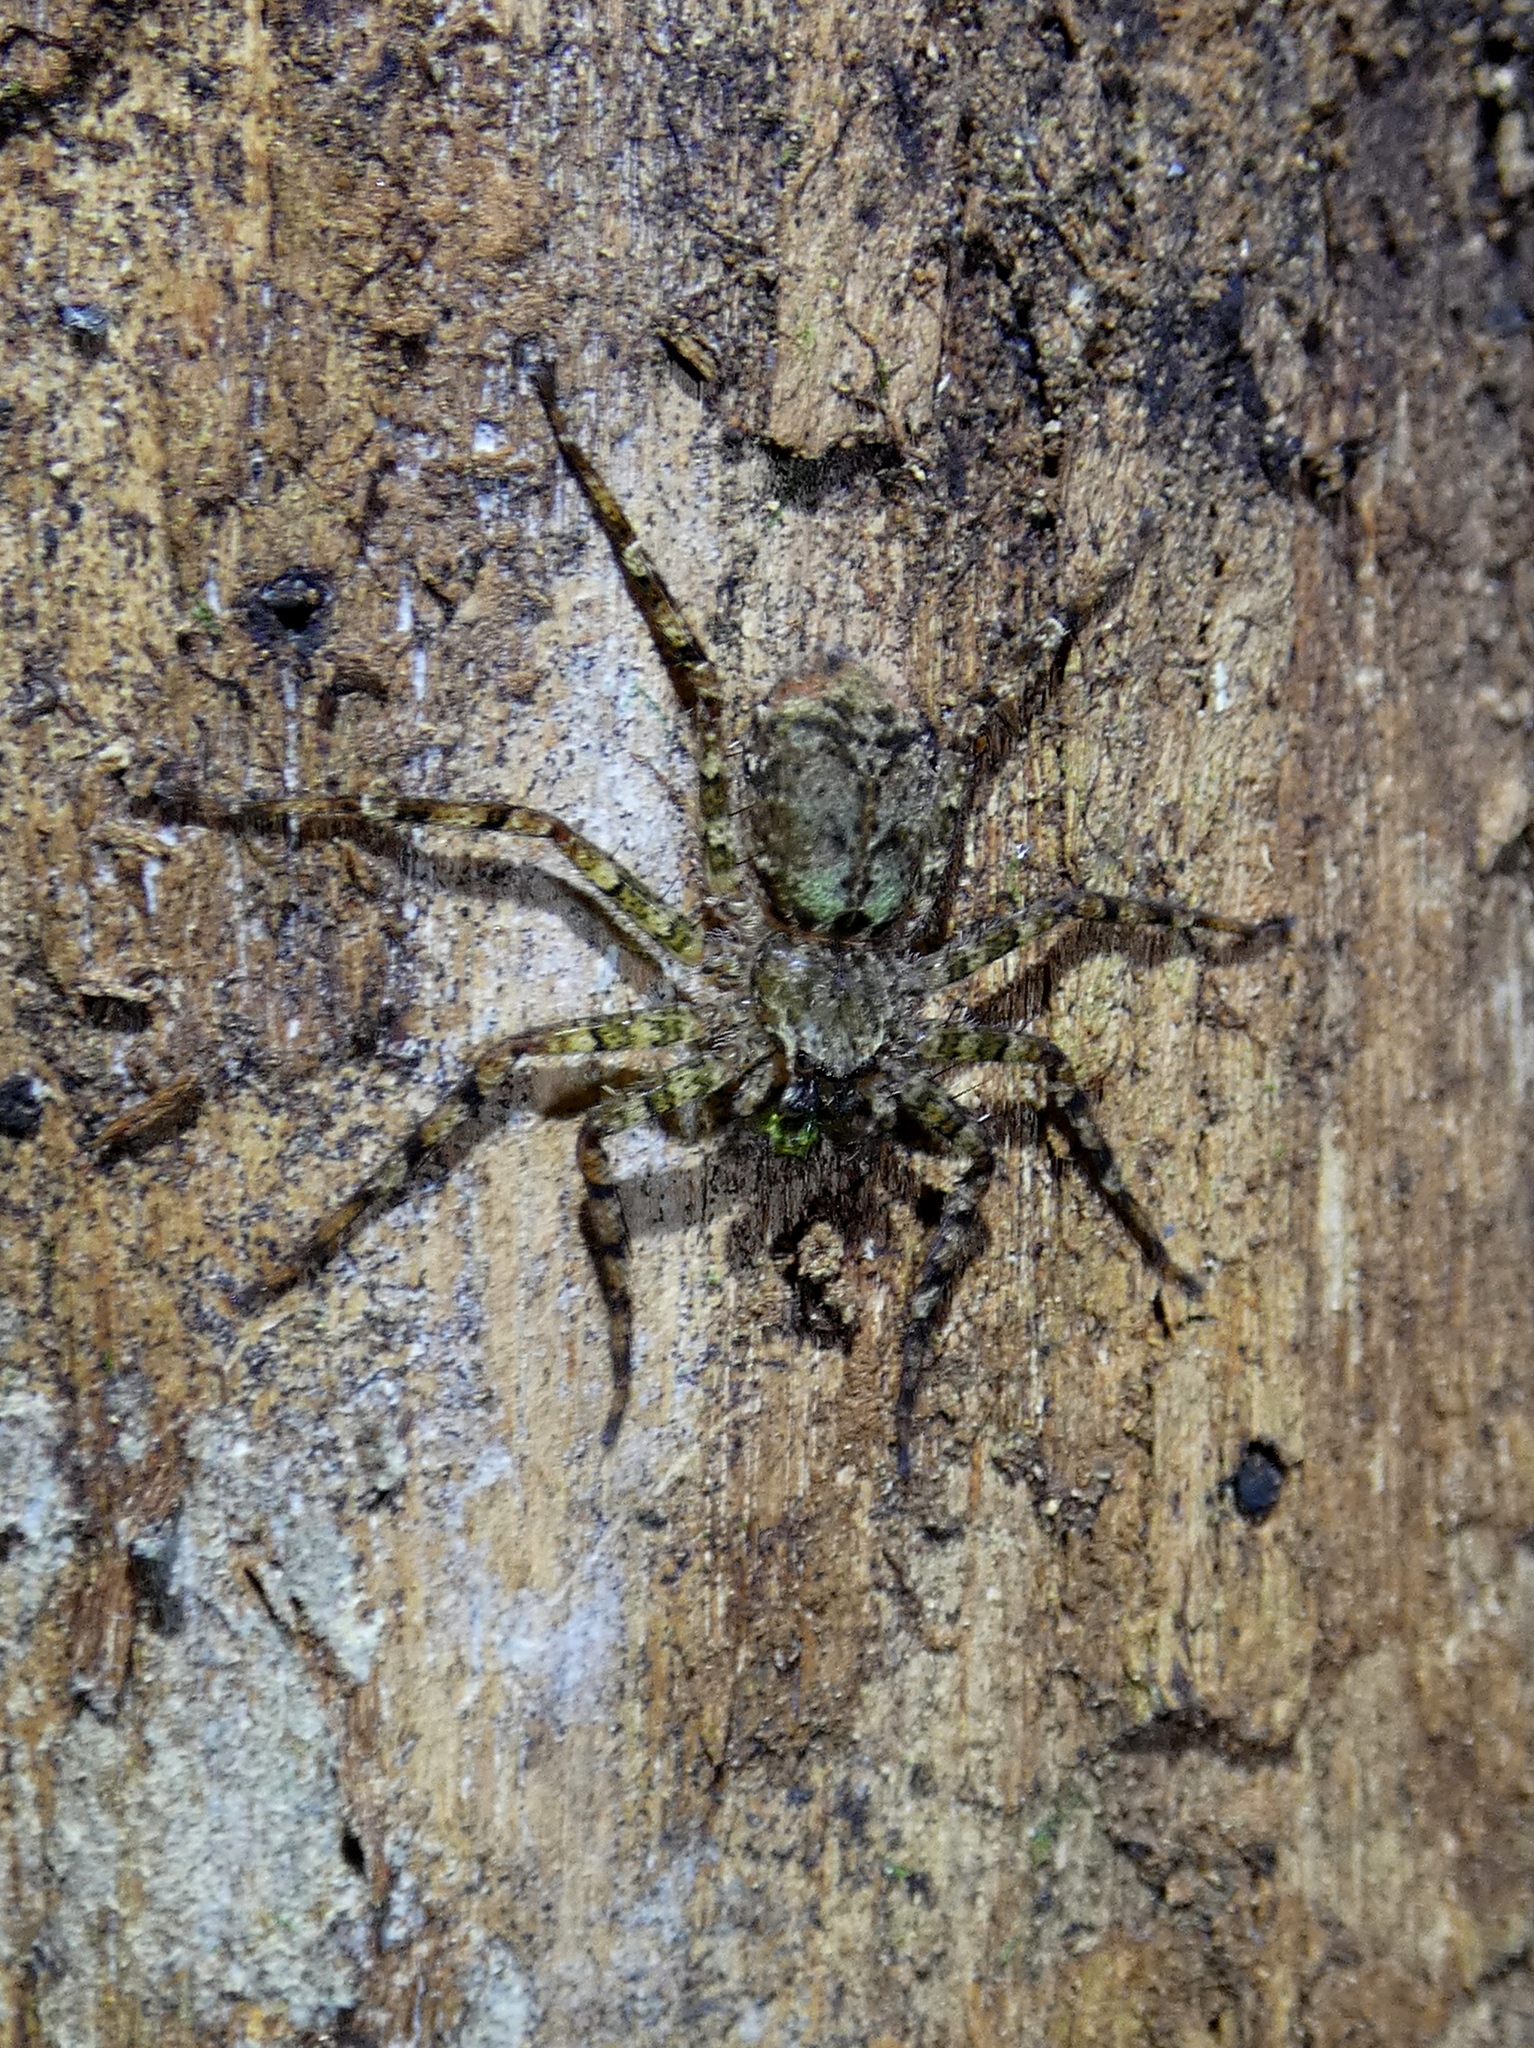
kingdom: Animalia
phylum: Arthropoda
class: Arachnida
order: Araneae
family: Selenopidae
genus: Selenops
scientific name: Selenops banksi
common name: Wall crab spiders
